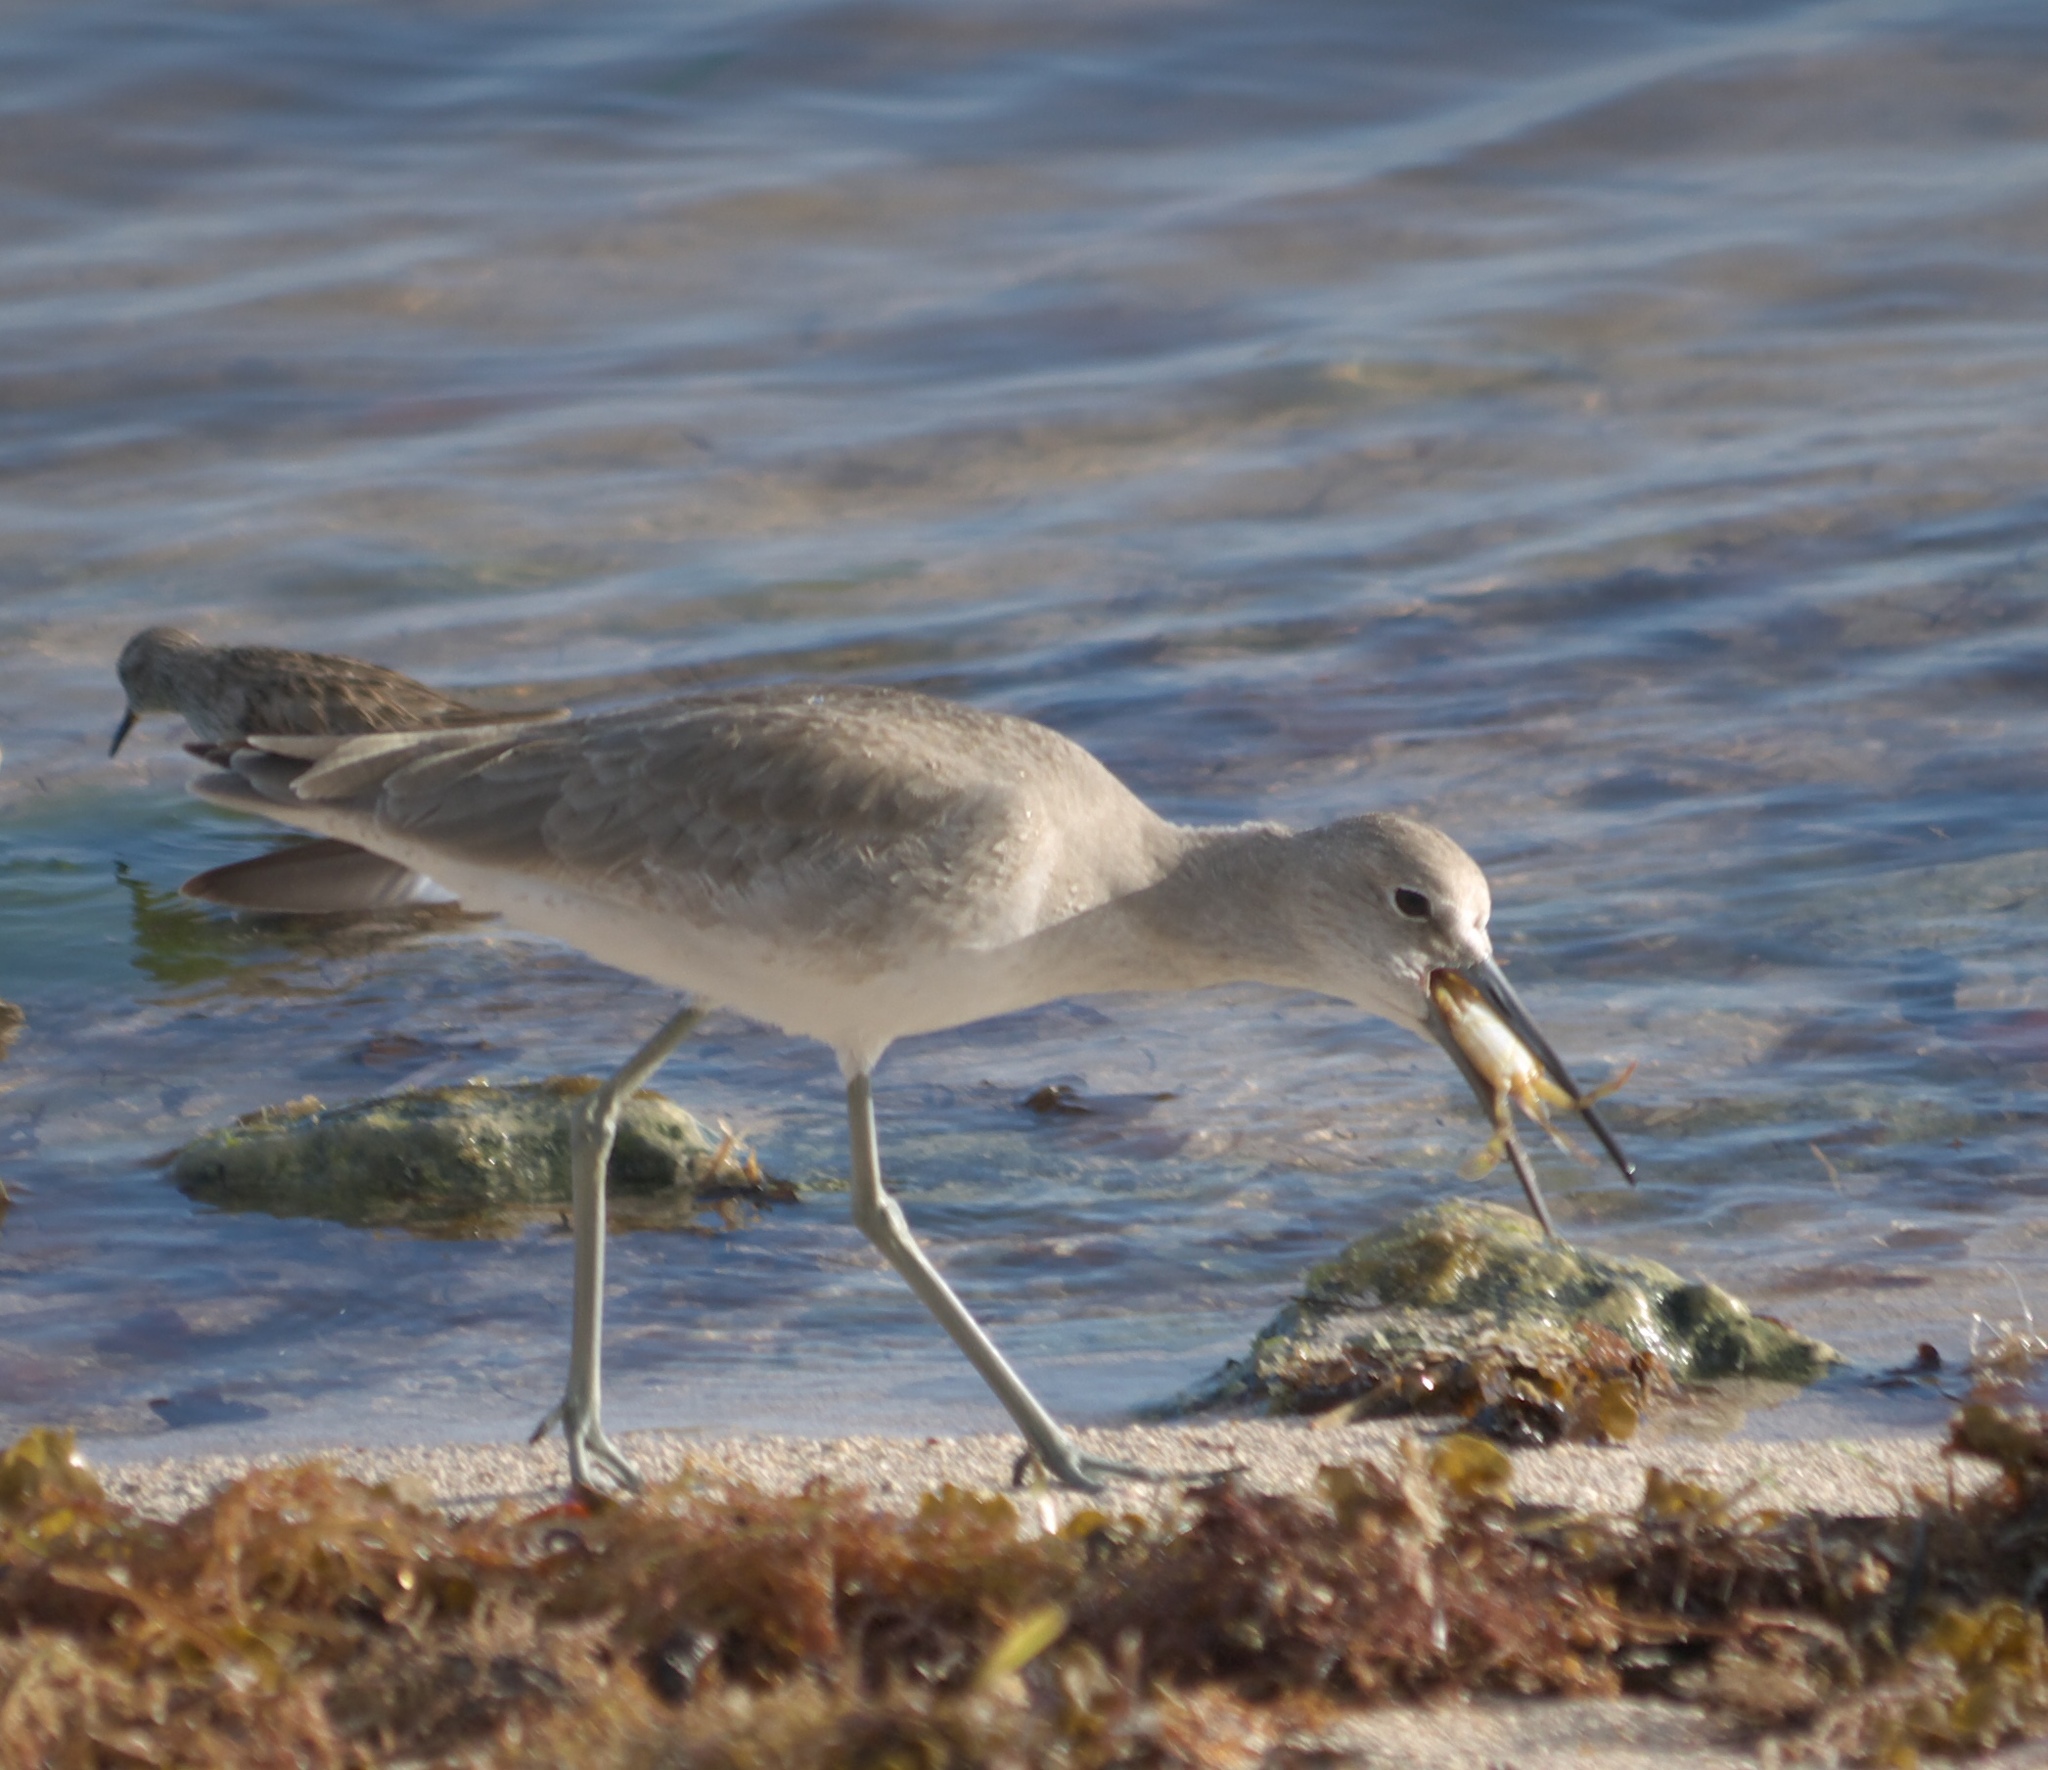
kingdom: Animalia
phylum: Chordata
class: Aves
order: Charadriiformes
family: Scolopacidae
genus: Tringa
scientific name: Tringa semipalmata
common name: Willet
